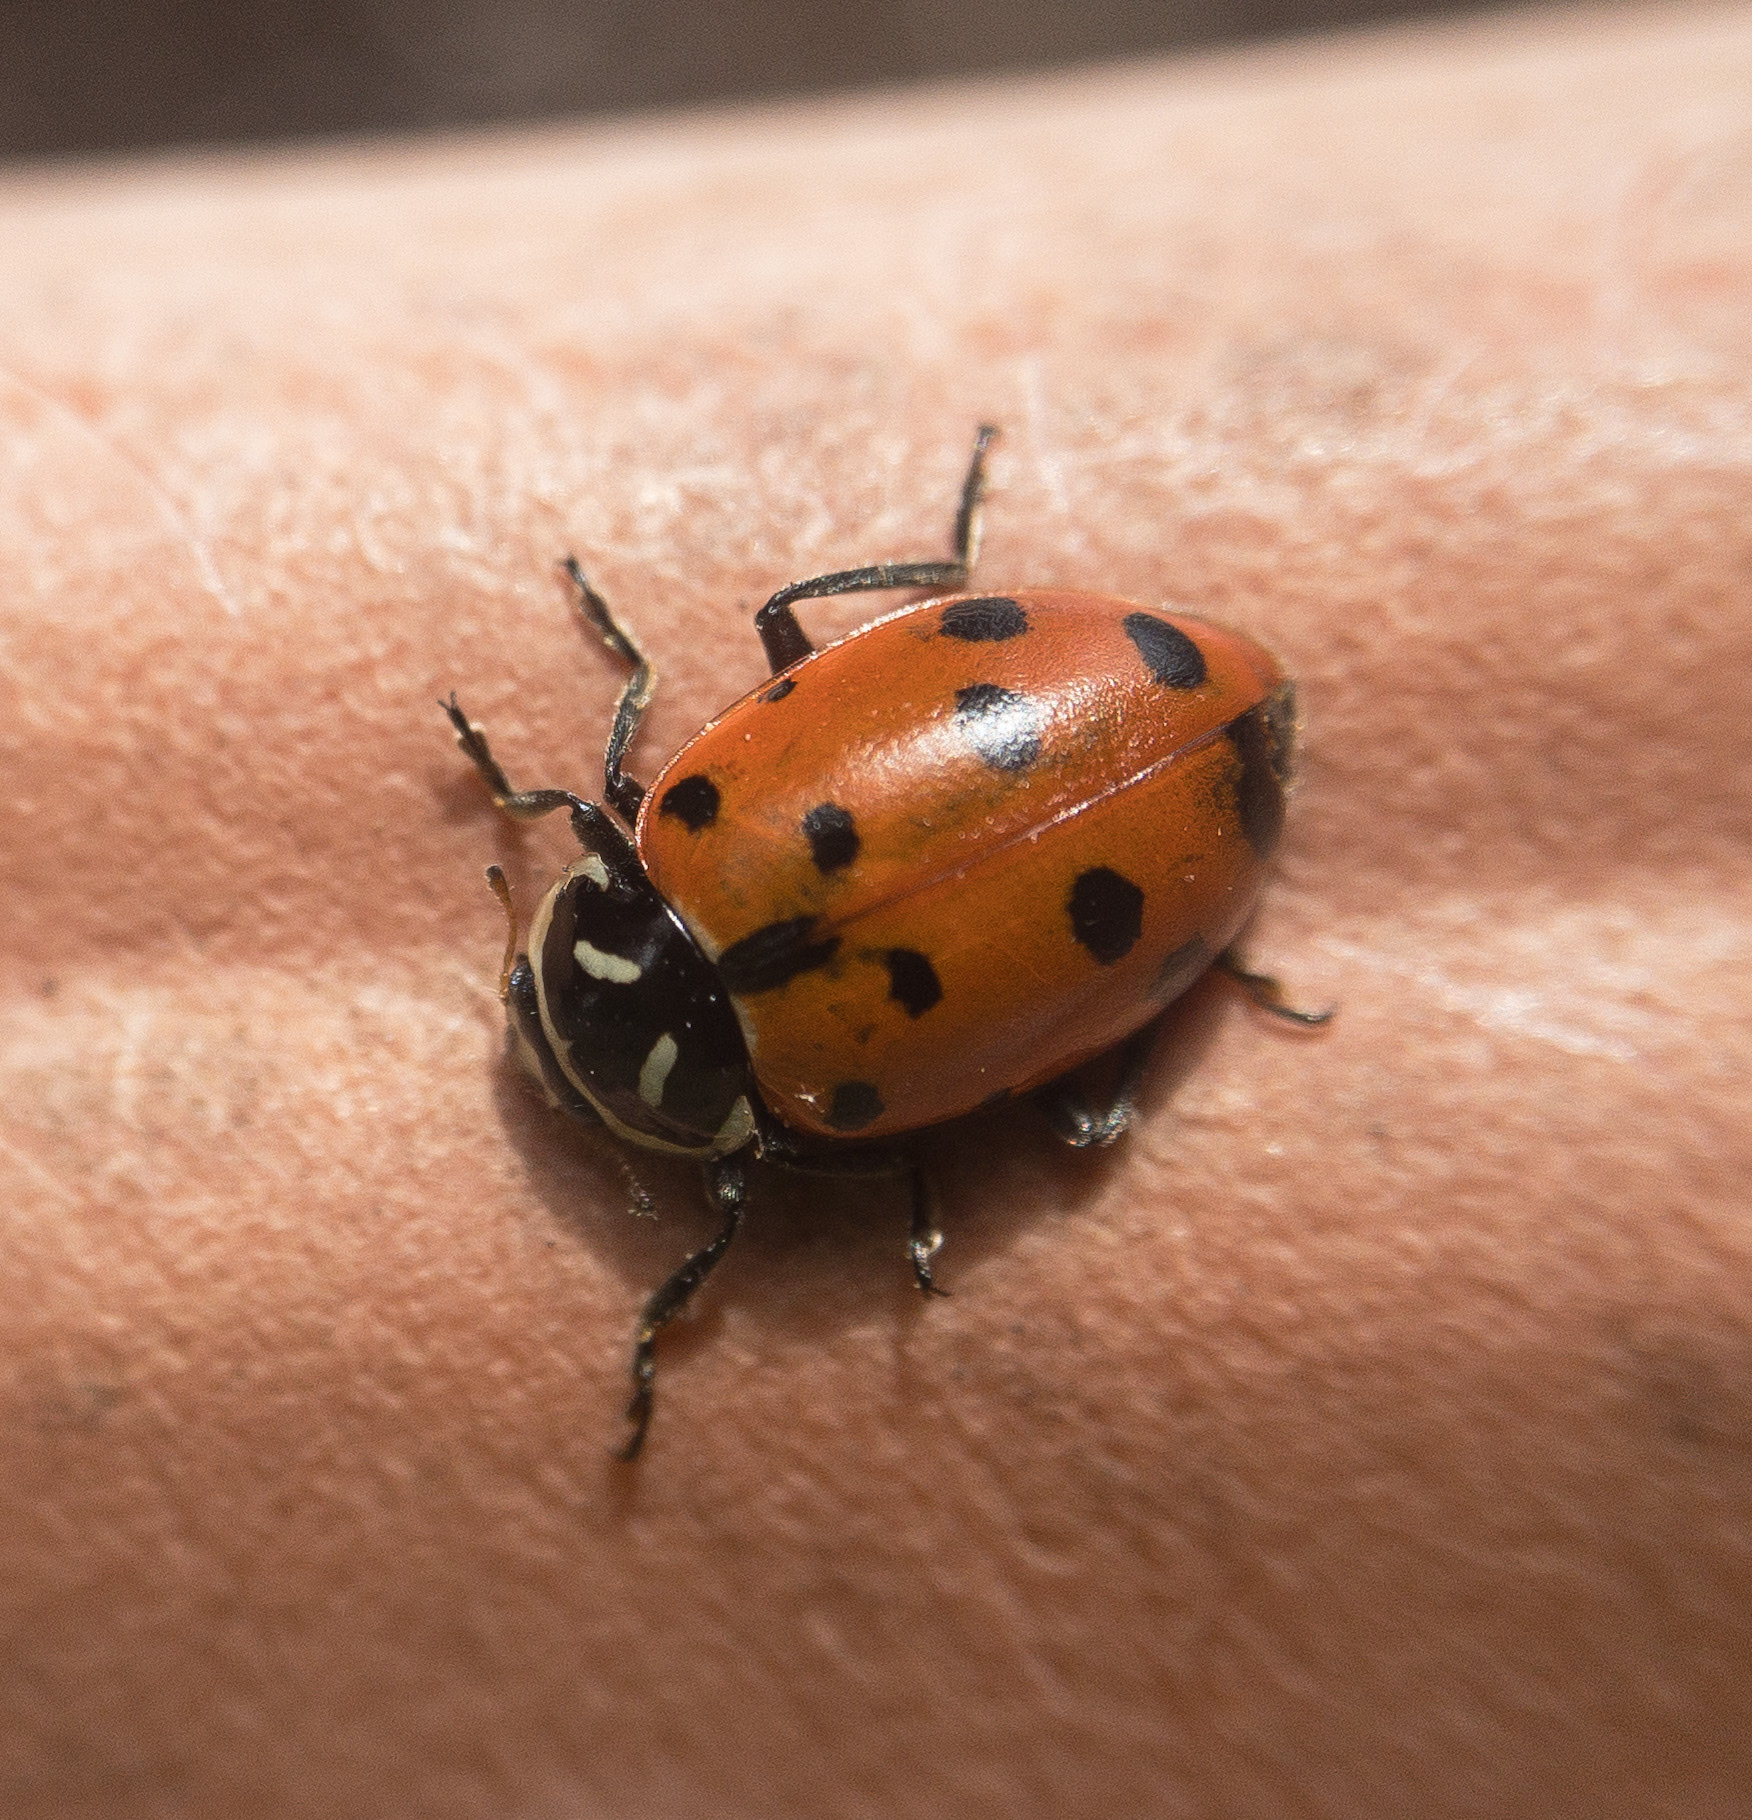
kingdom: Animalia
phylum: Arthropoda
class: Insecta
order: Coleoptera
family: Coccinellidae
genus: Hippodamia
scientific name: Hippodamia convergens
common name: Convergent lady beetle
